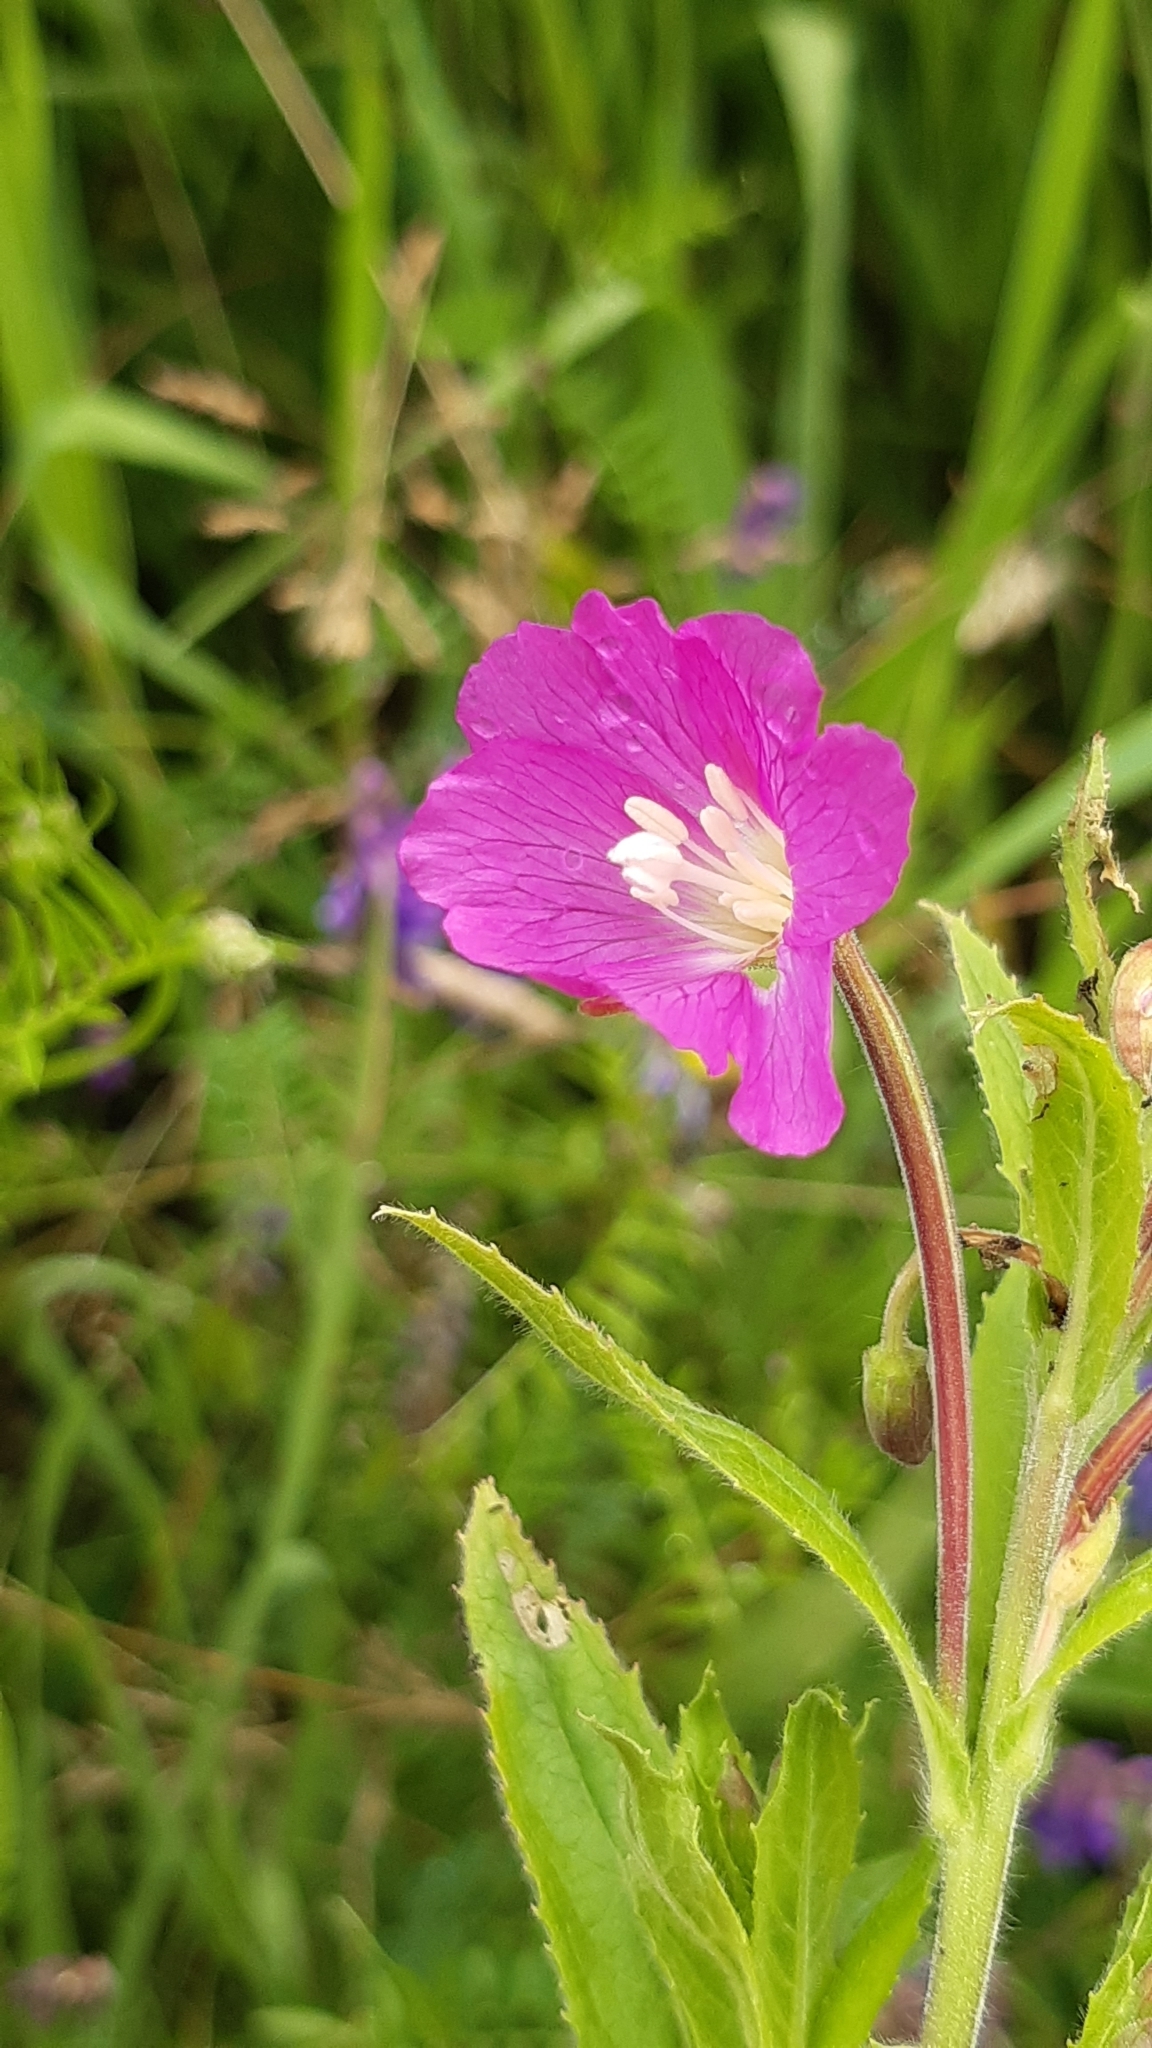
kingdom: Plantae
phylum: Tracheophyta
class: Magnoliopsida
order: Myrtales
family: Onagraceae
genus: Epilobium
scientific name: Epilobium hirsutum
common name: Great willowherb
